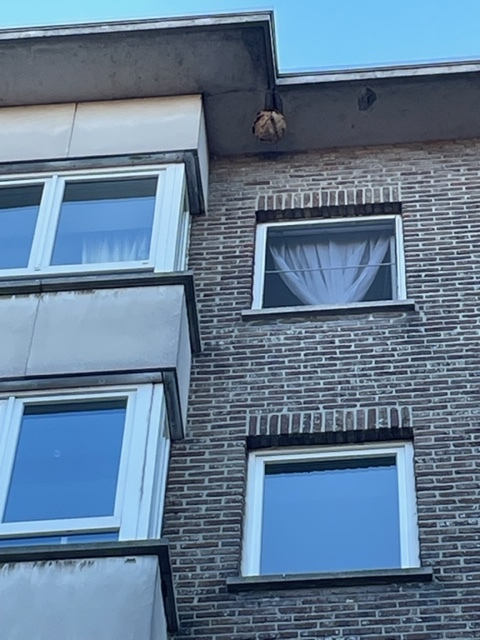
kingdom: Animalia
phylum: Arthropoda
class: Insecta
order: Hymenoptera
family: Vespidae
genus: Vespa
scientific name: Vespa velutina
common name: Asian hornet
